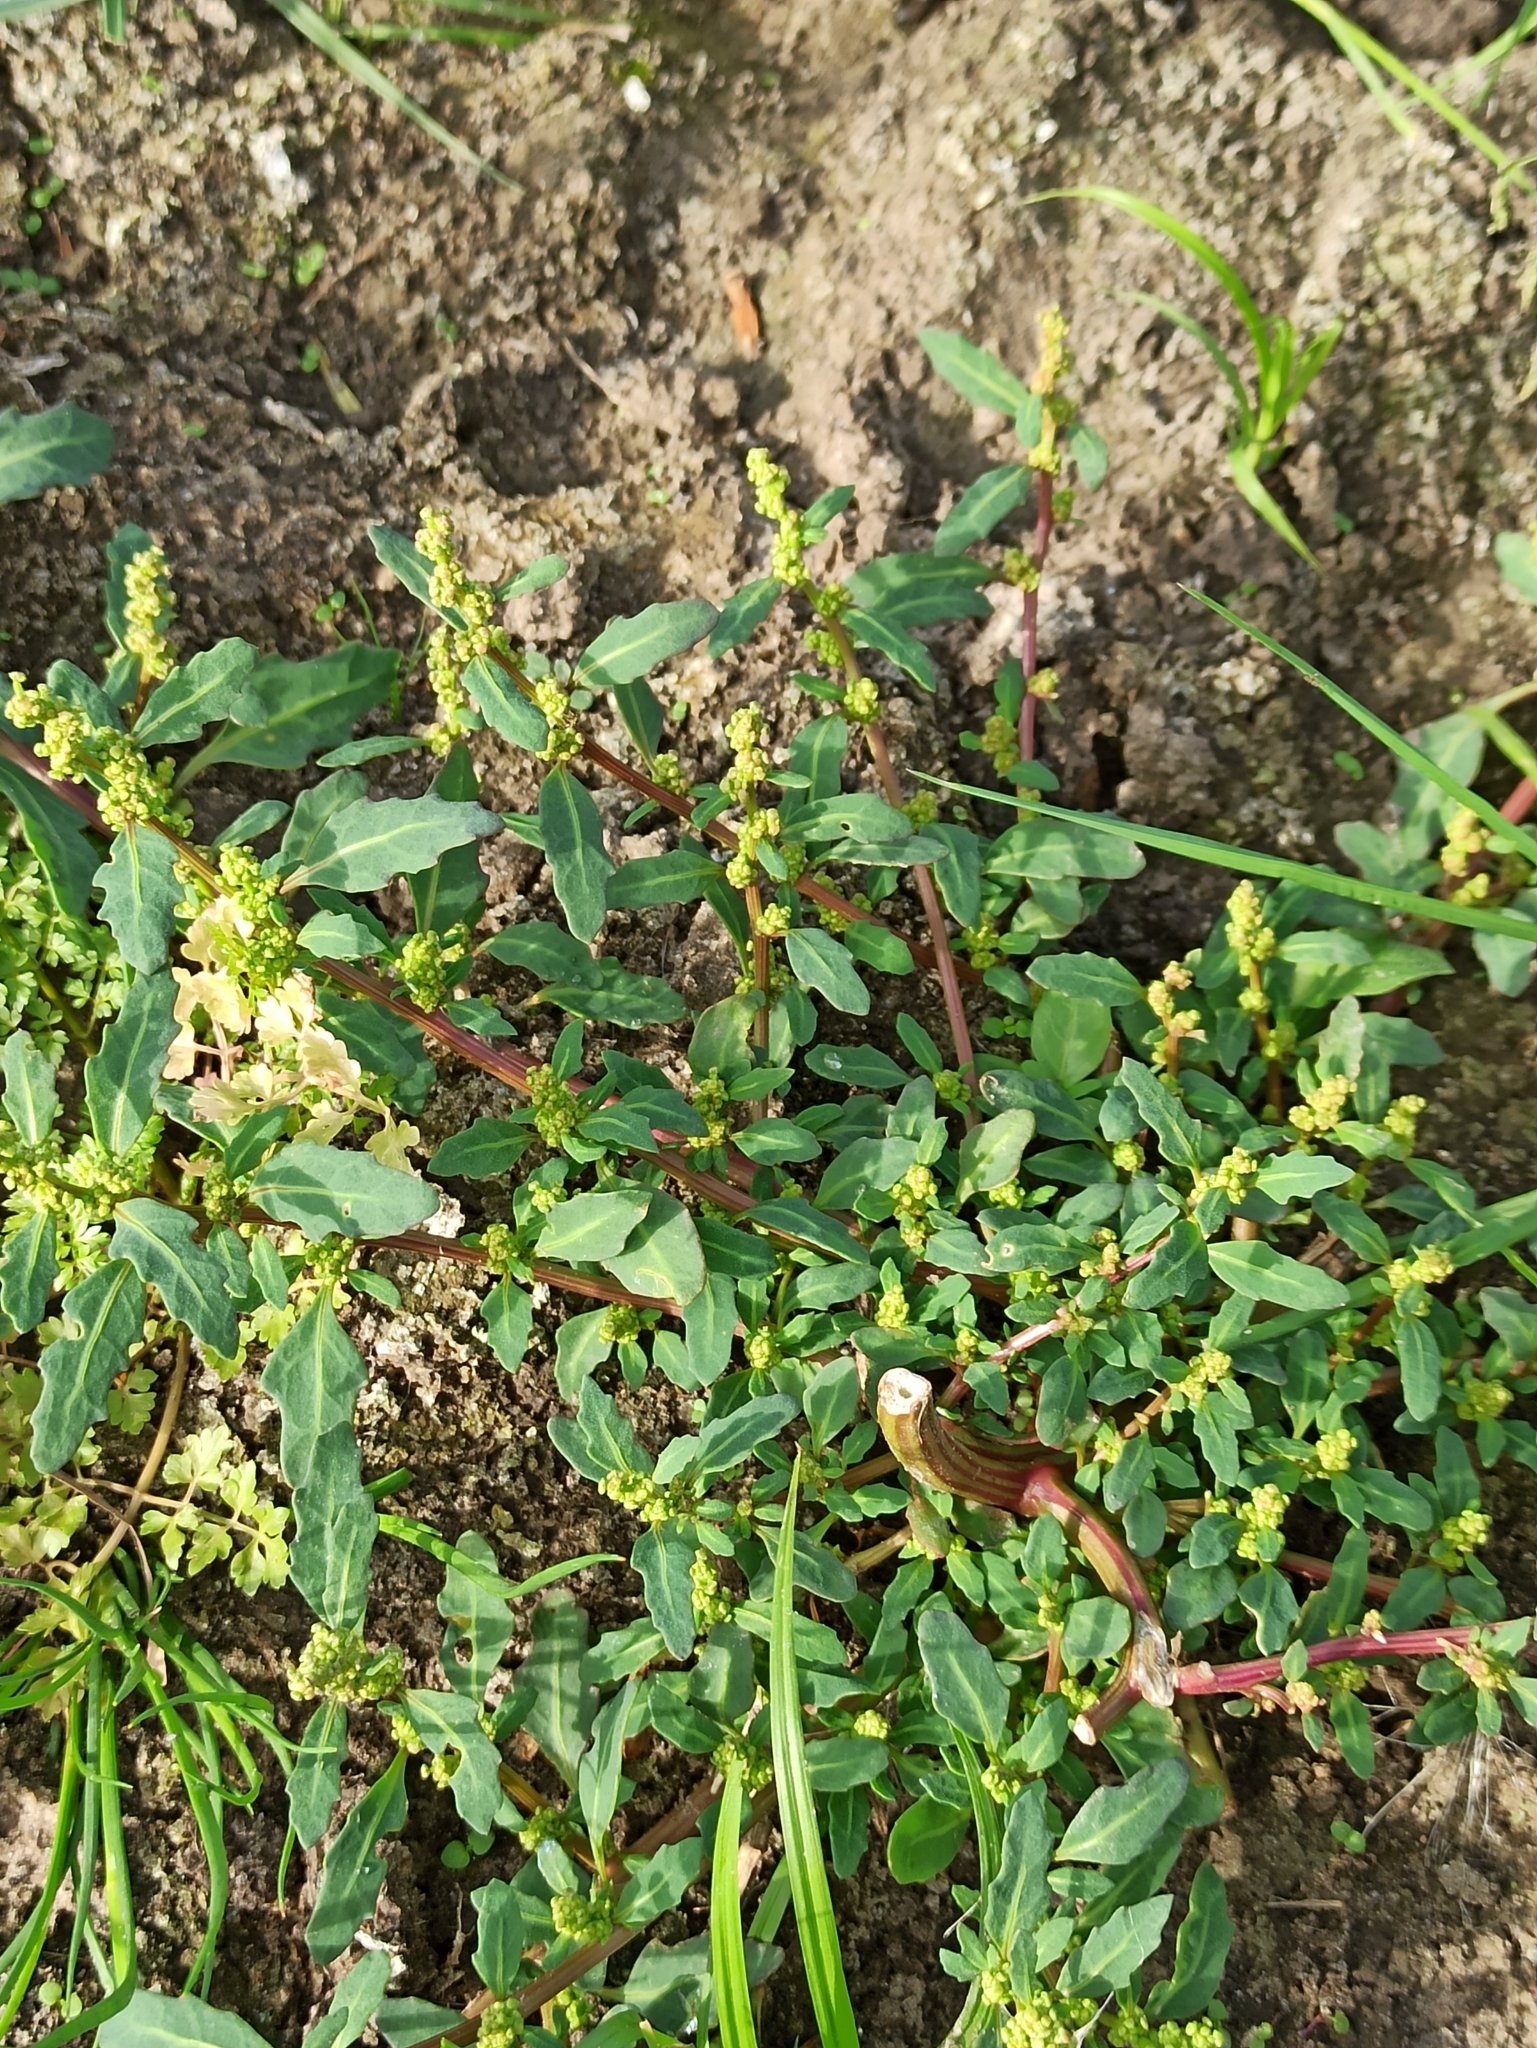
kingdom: Plantae
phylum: Tracheophyta
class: Magnoliopsida
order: Caryophyllales
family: Amaranthaceae
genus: Oxybasis
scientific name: Oxybasis glauca
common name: Glaucous goosefoot
